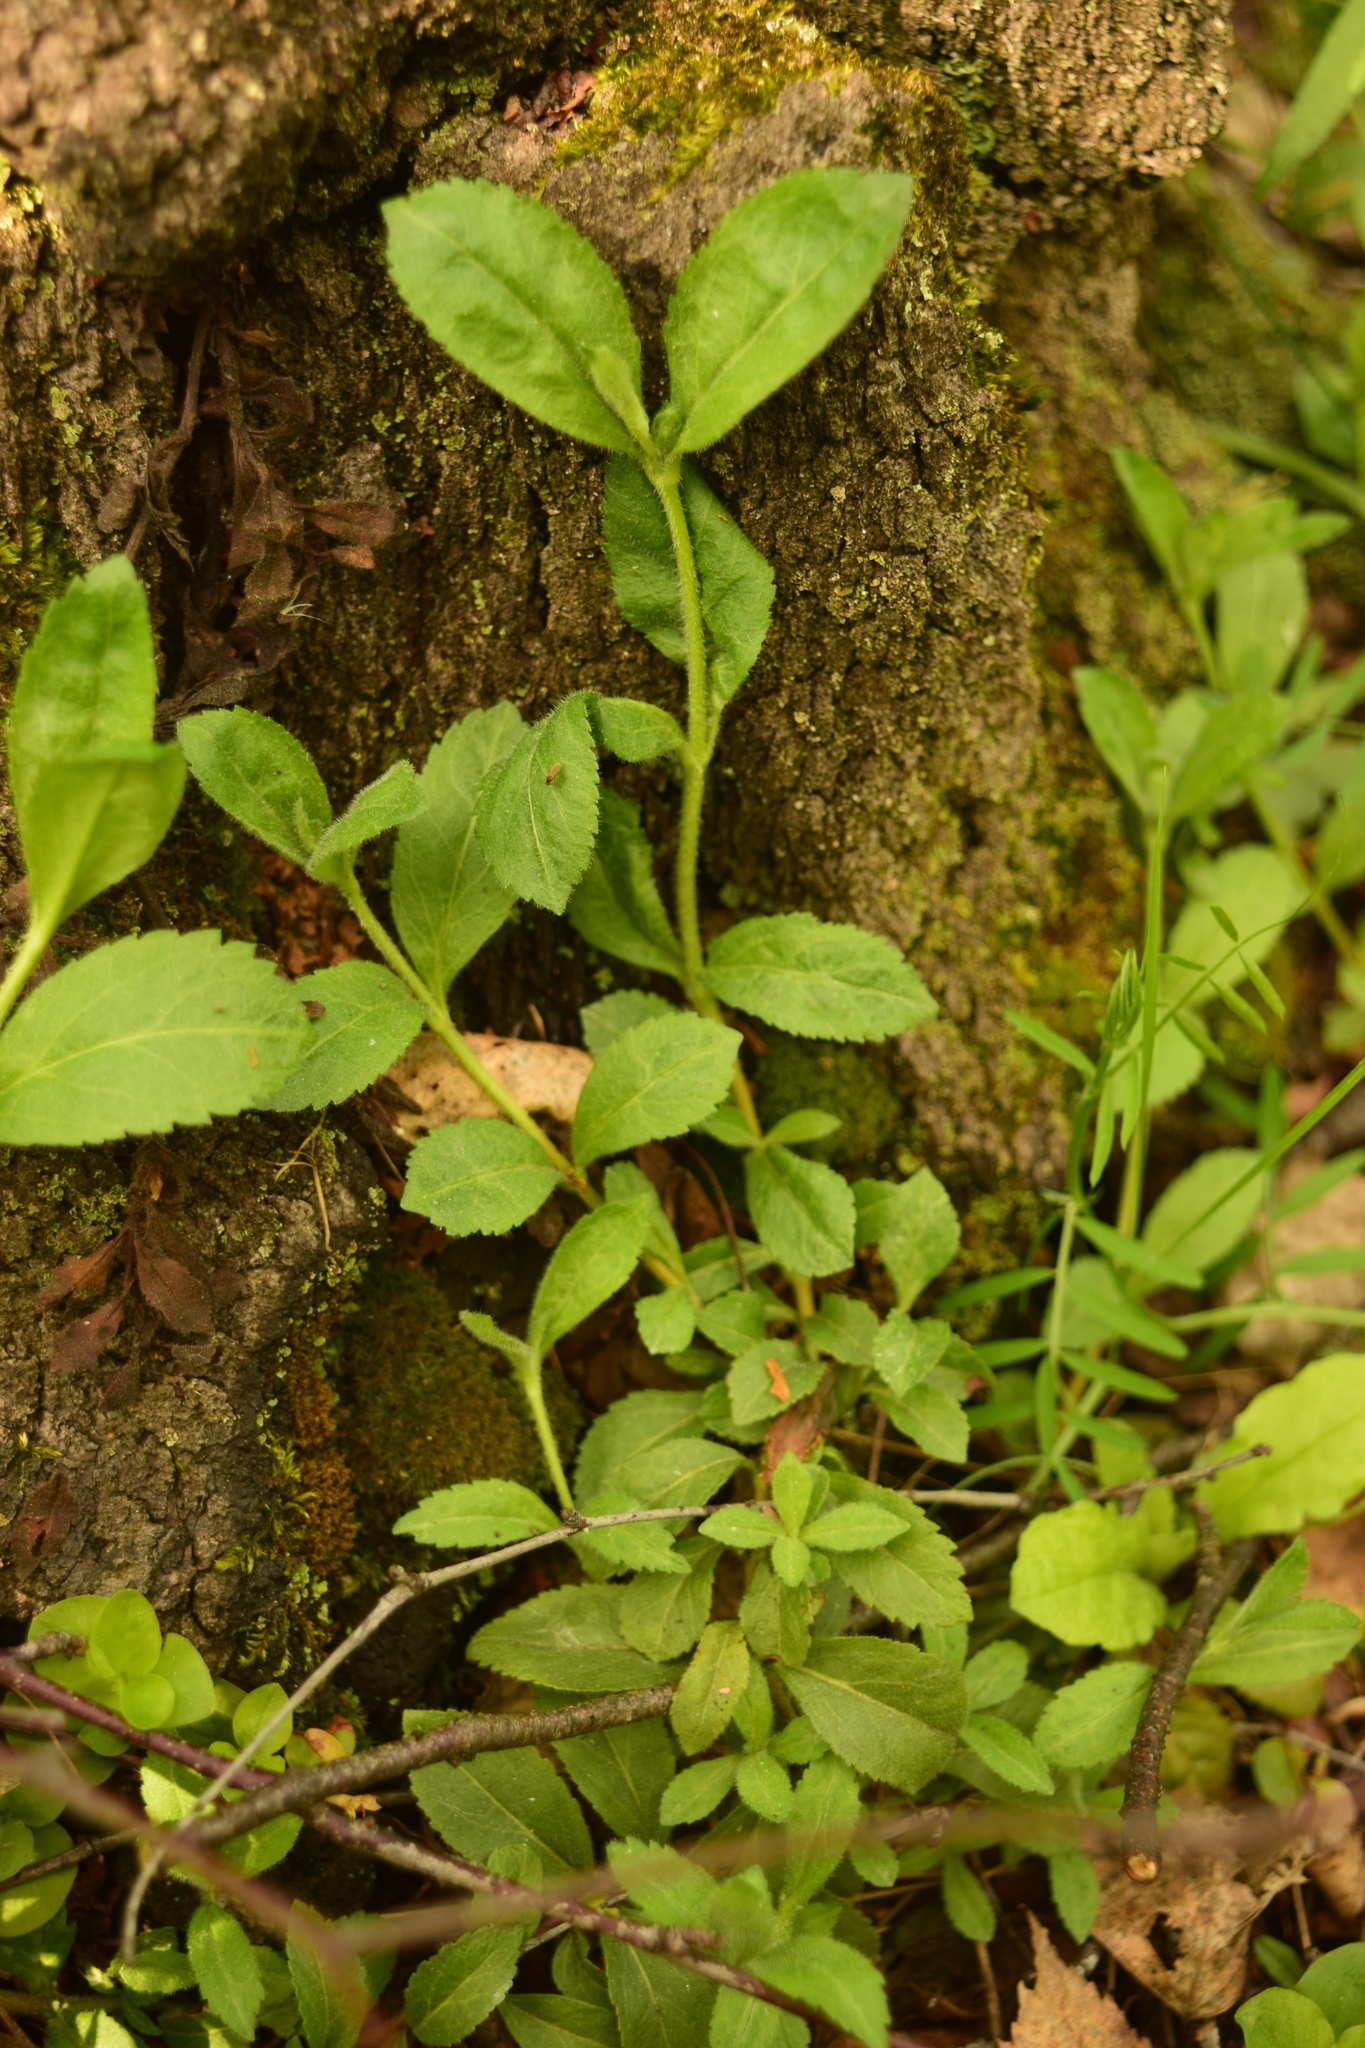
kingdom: Plantae
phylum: Tracheophyta
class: Magnoliopsida
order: Lamiales
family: Plantaginaceae
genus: Veronica
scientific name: Veronica officinalis
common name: Common speedwell
